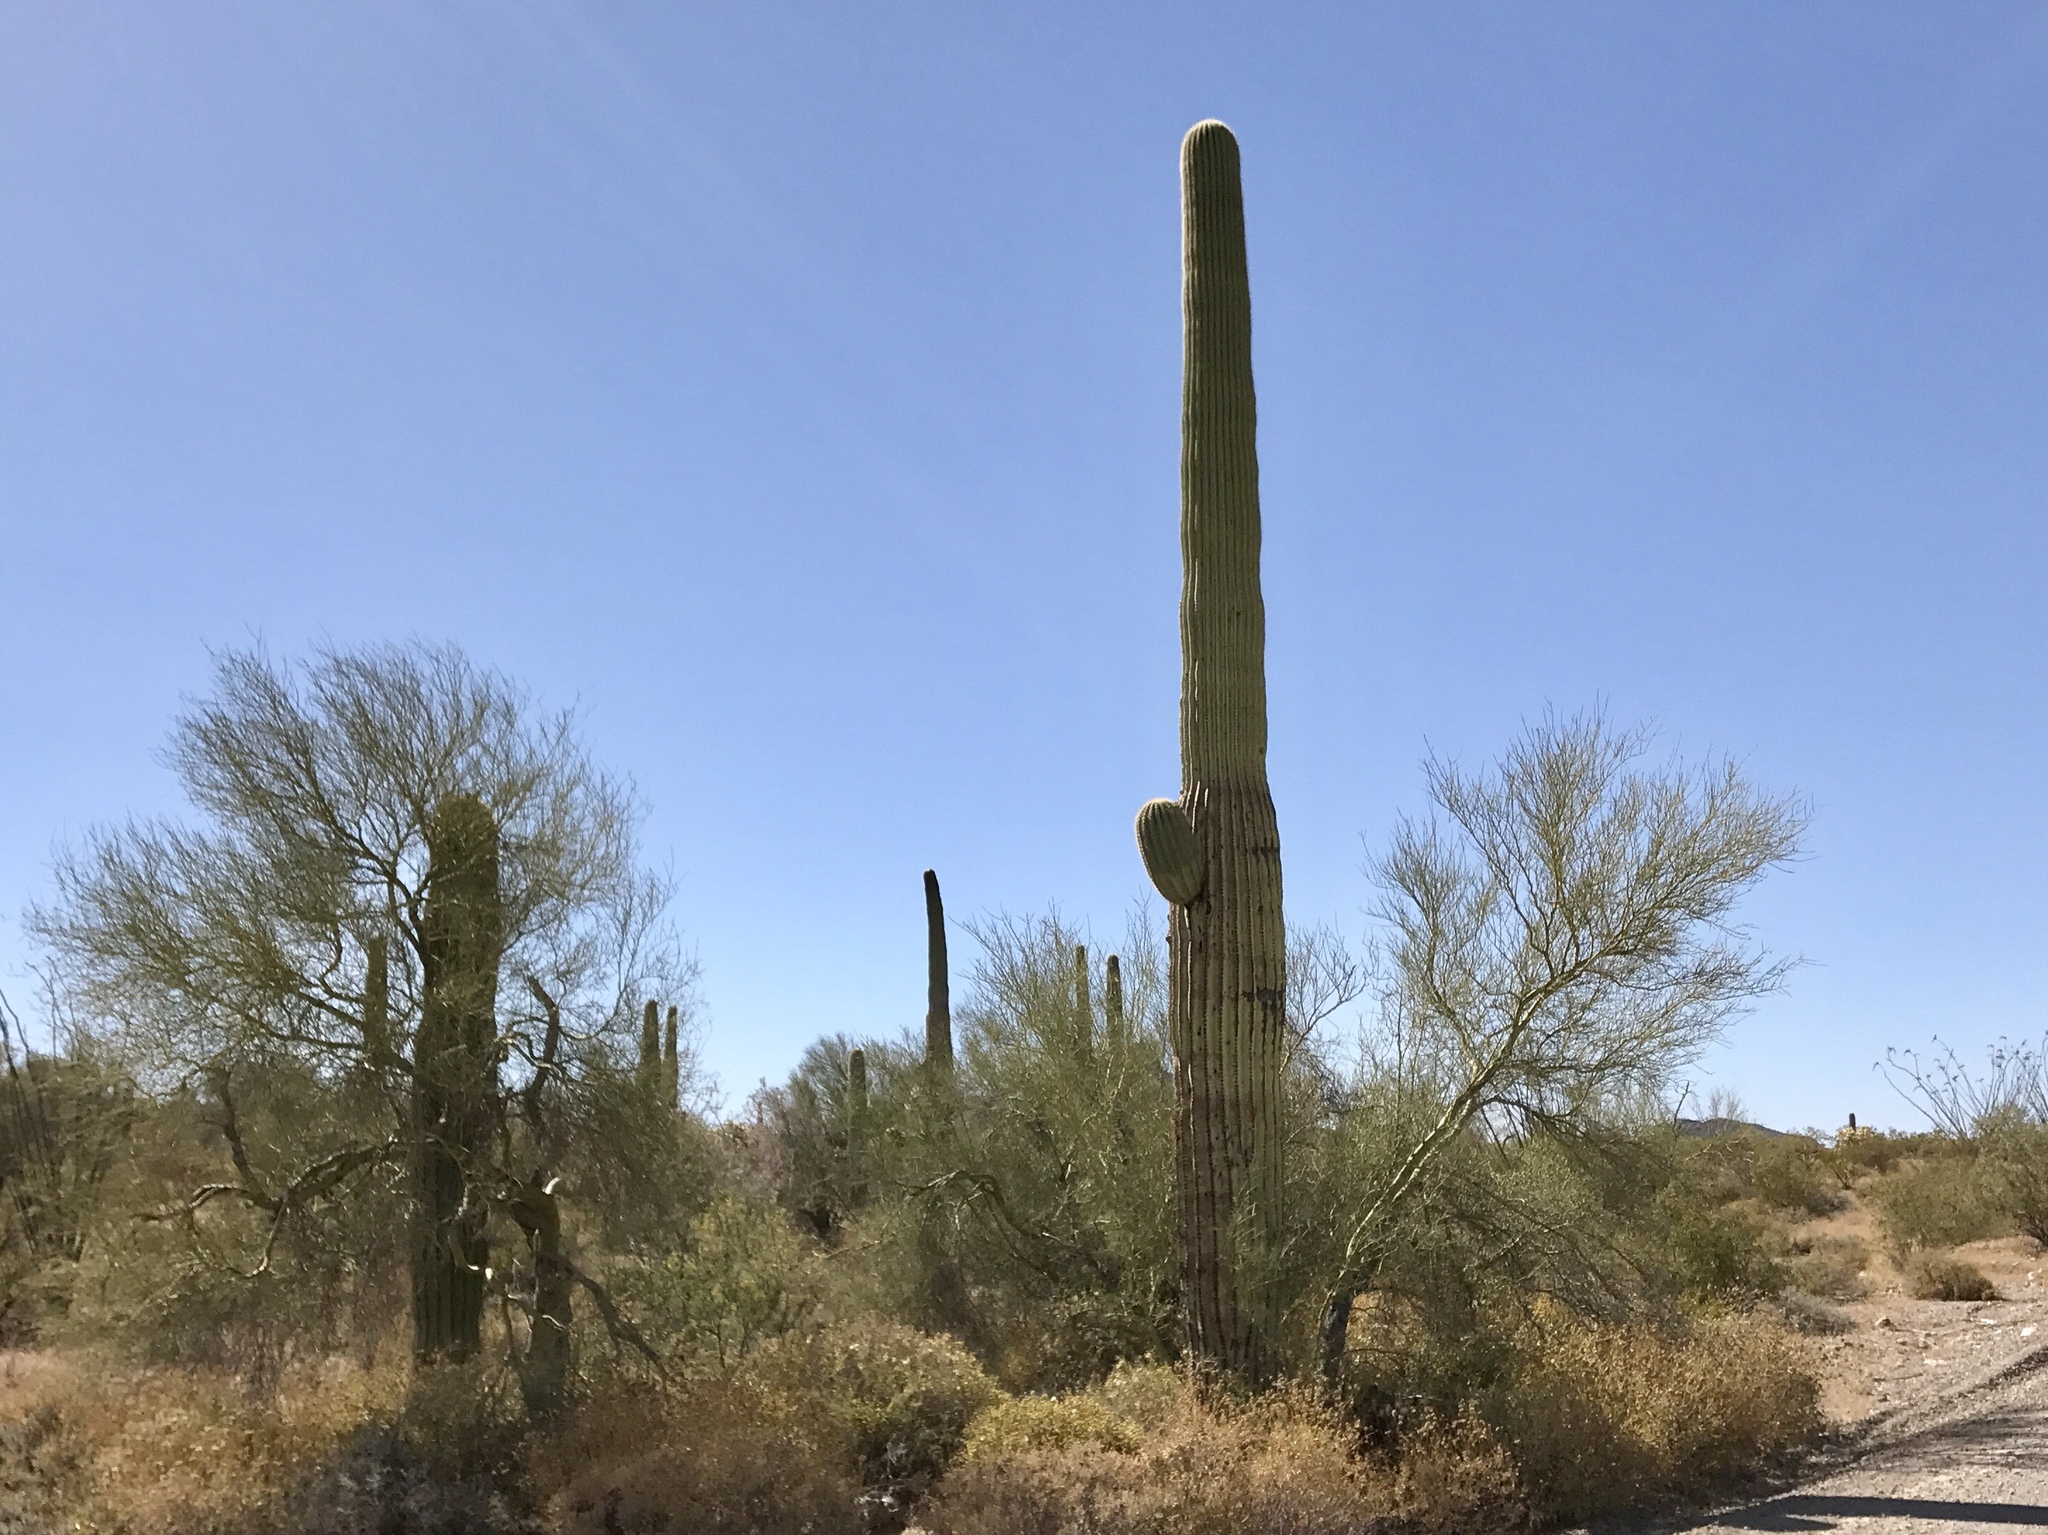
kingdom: Plantae
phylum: Tracheophyta
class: Magnoliopsida
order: Caryophyllales
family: Cactaceae
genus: Carnegiea
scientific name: Carnegiea gigantea
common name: Saguaro
